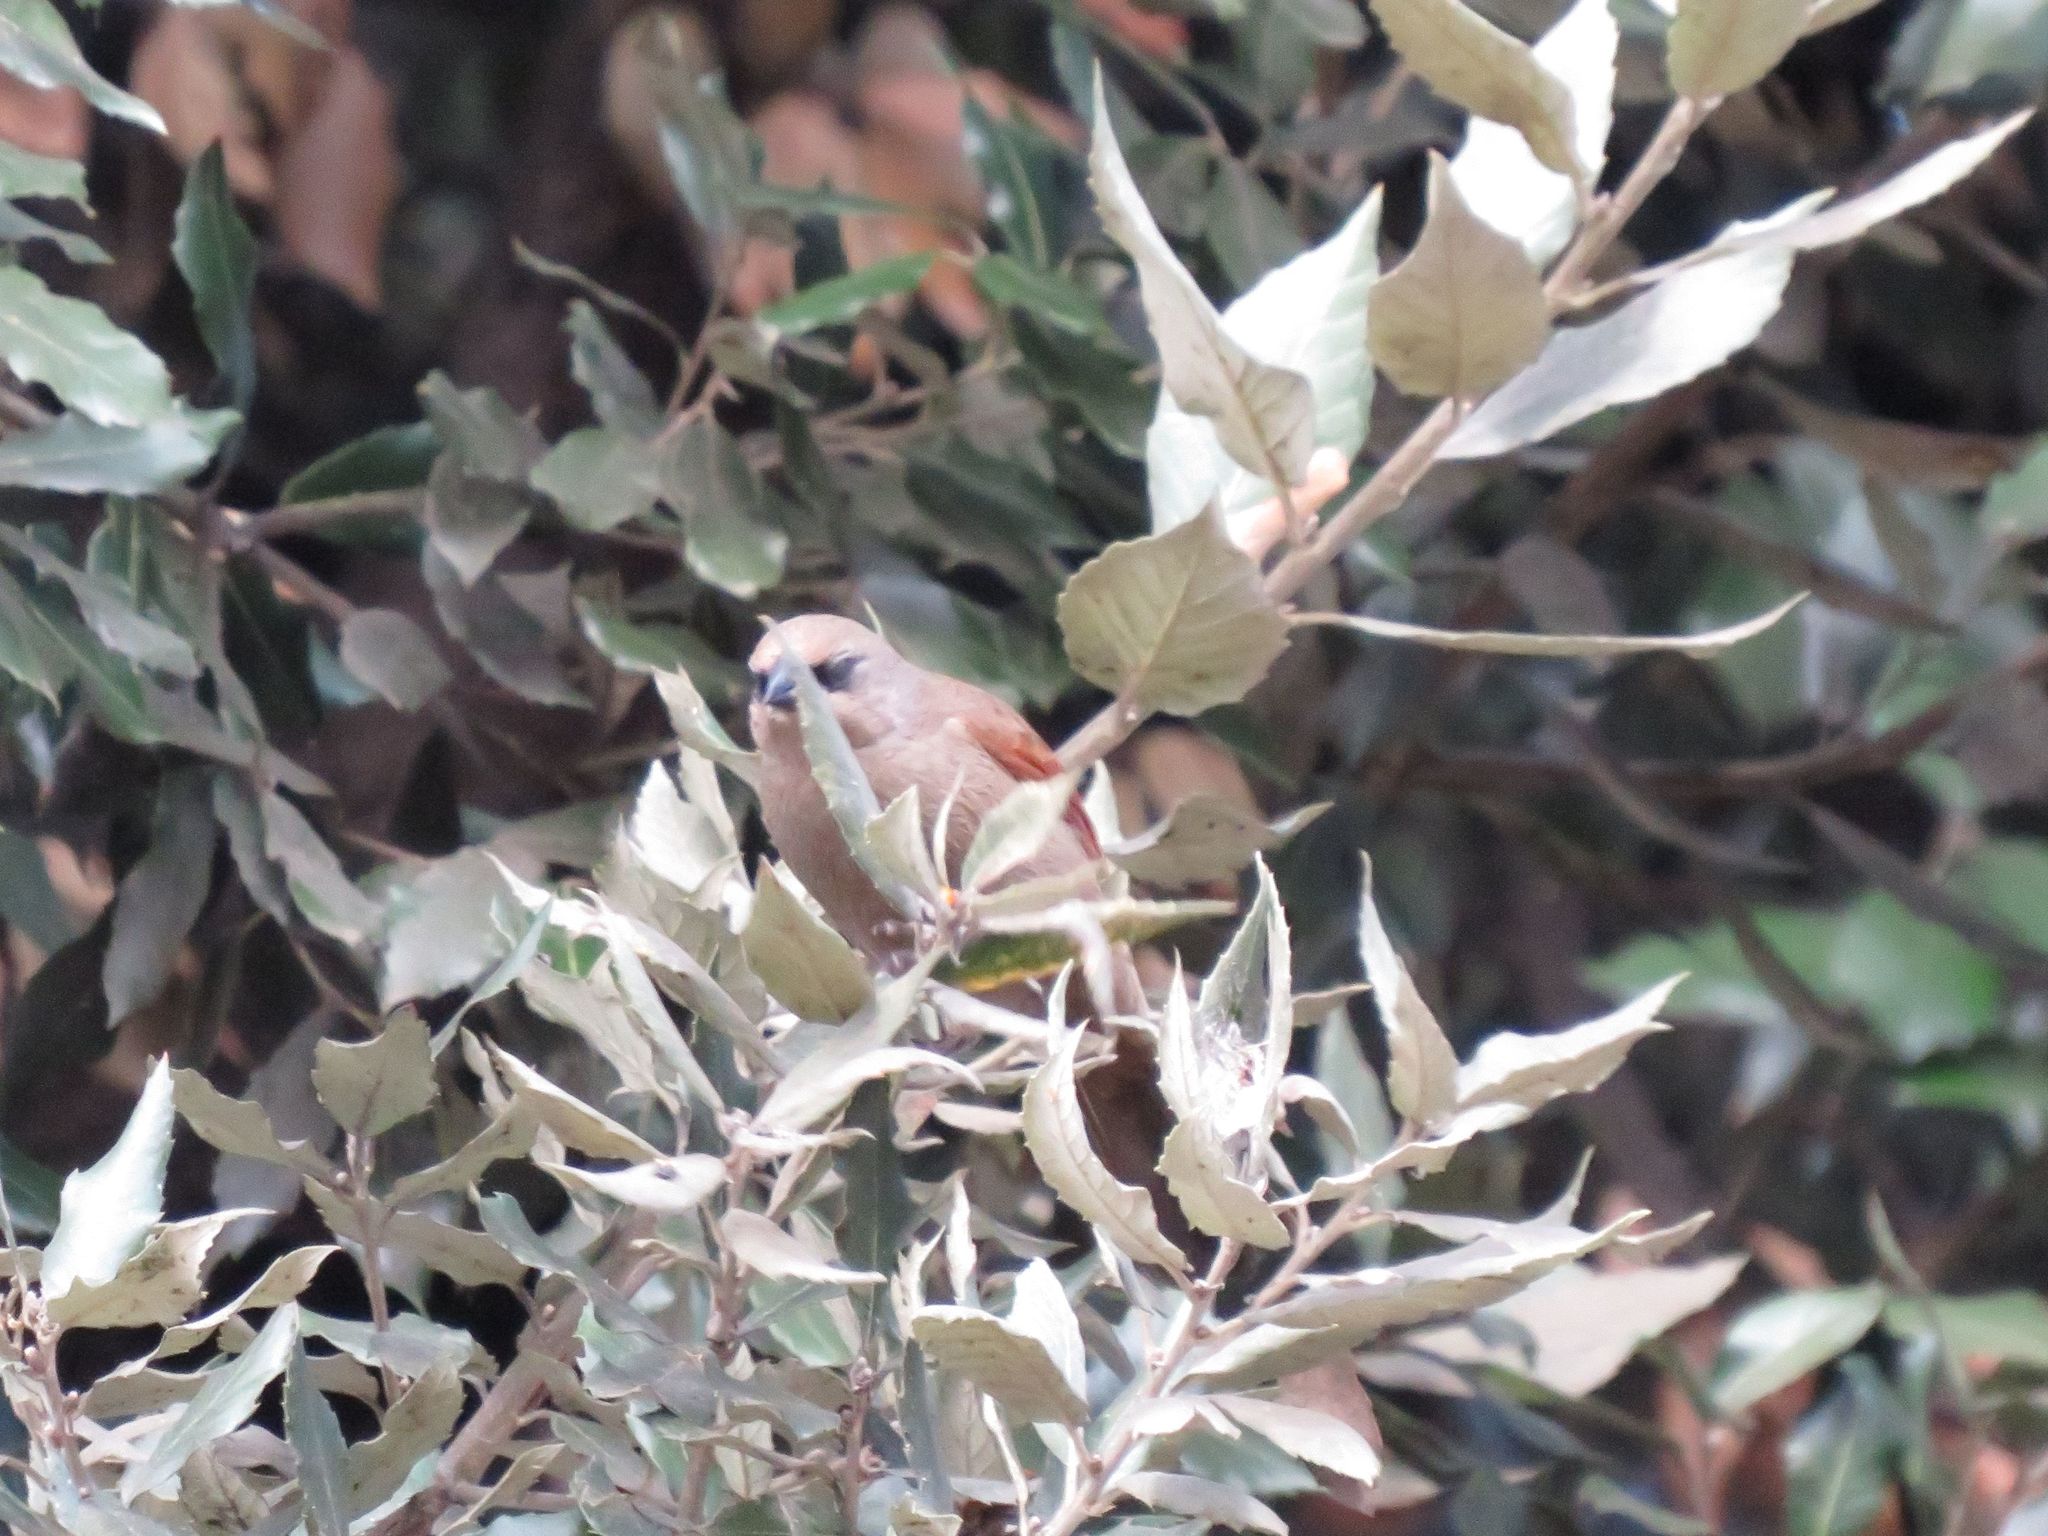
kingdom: Animalia
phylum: Chordata
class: Aves
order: Passeriformes
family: Icteridae
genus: Agelaioides
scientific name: Agelaioides badius
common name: Baywing
